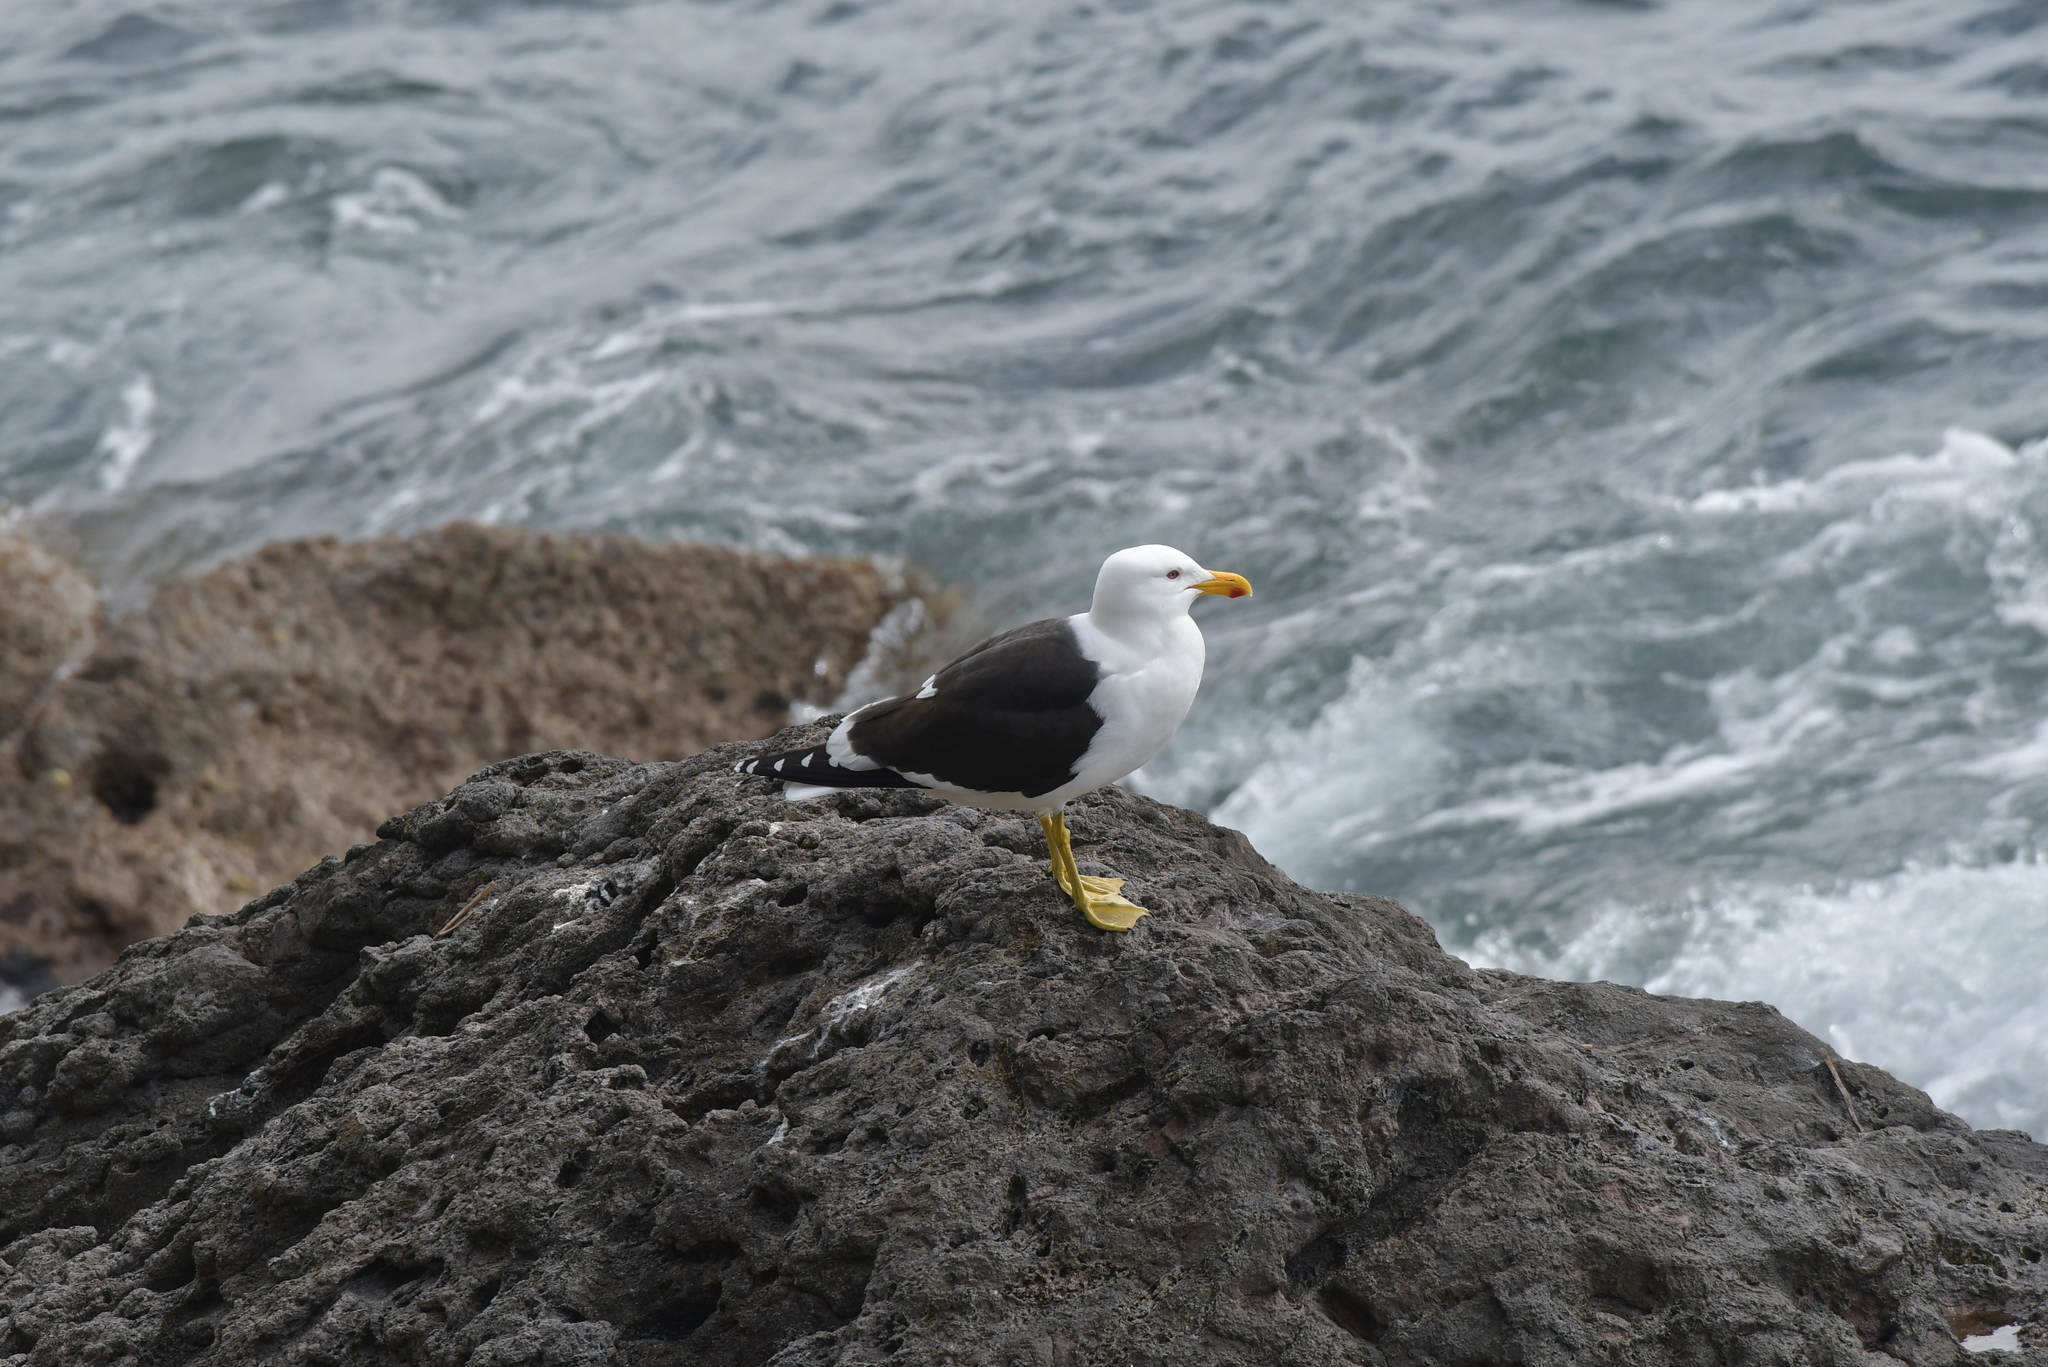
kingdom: Animalia
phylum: Chordata
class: Aves
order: Charadriiformes
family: Laridae
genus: Larus
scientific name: Larus dominicanus
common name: Kelp gull
